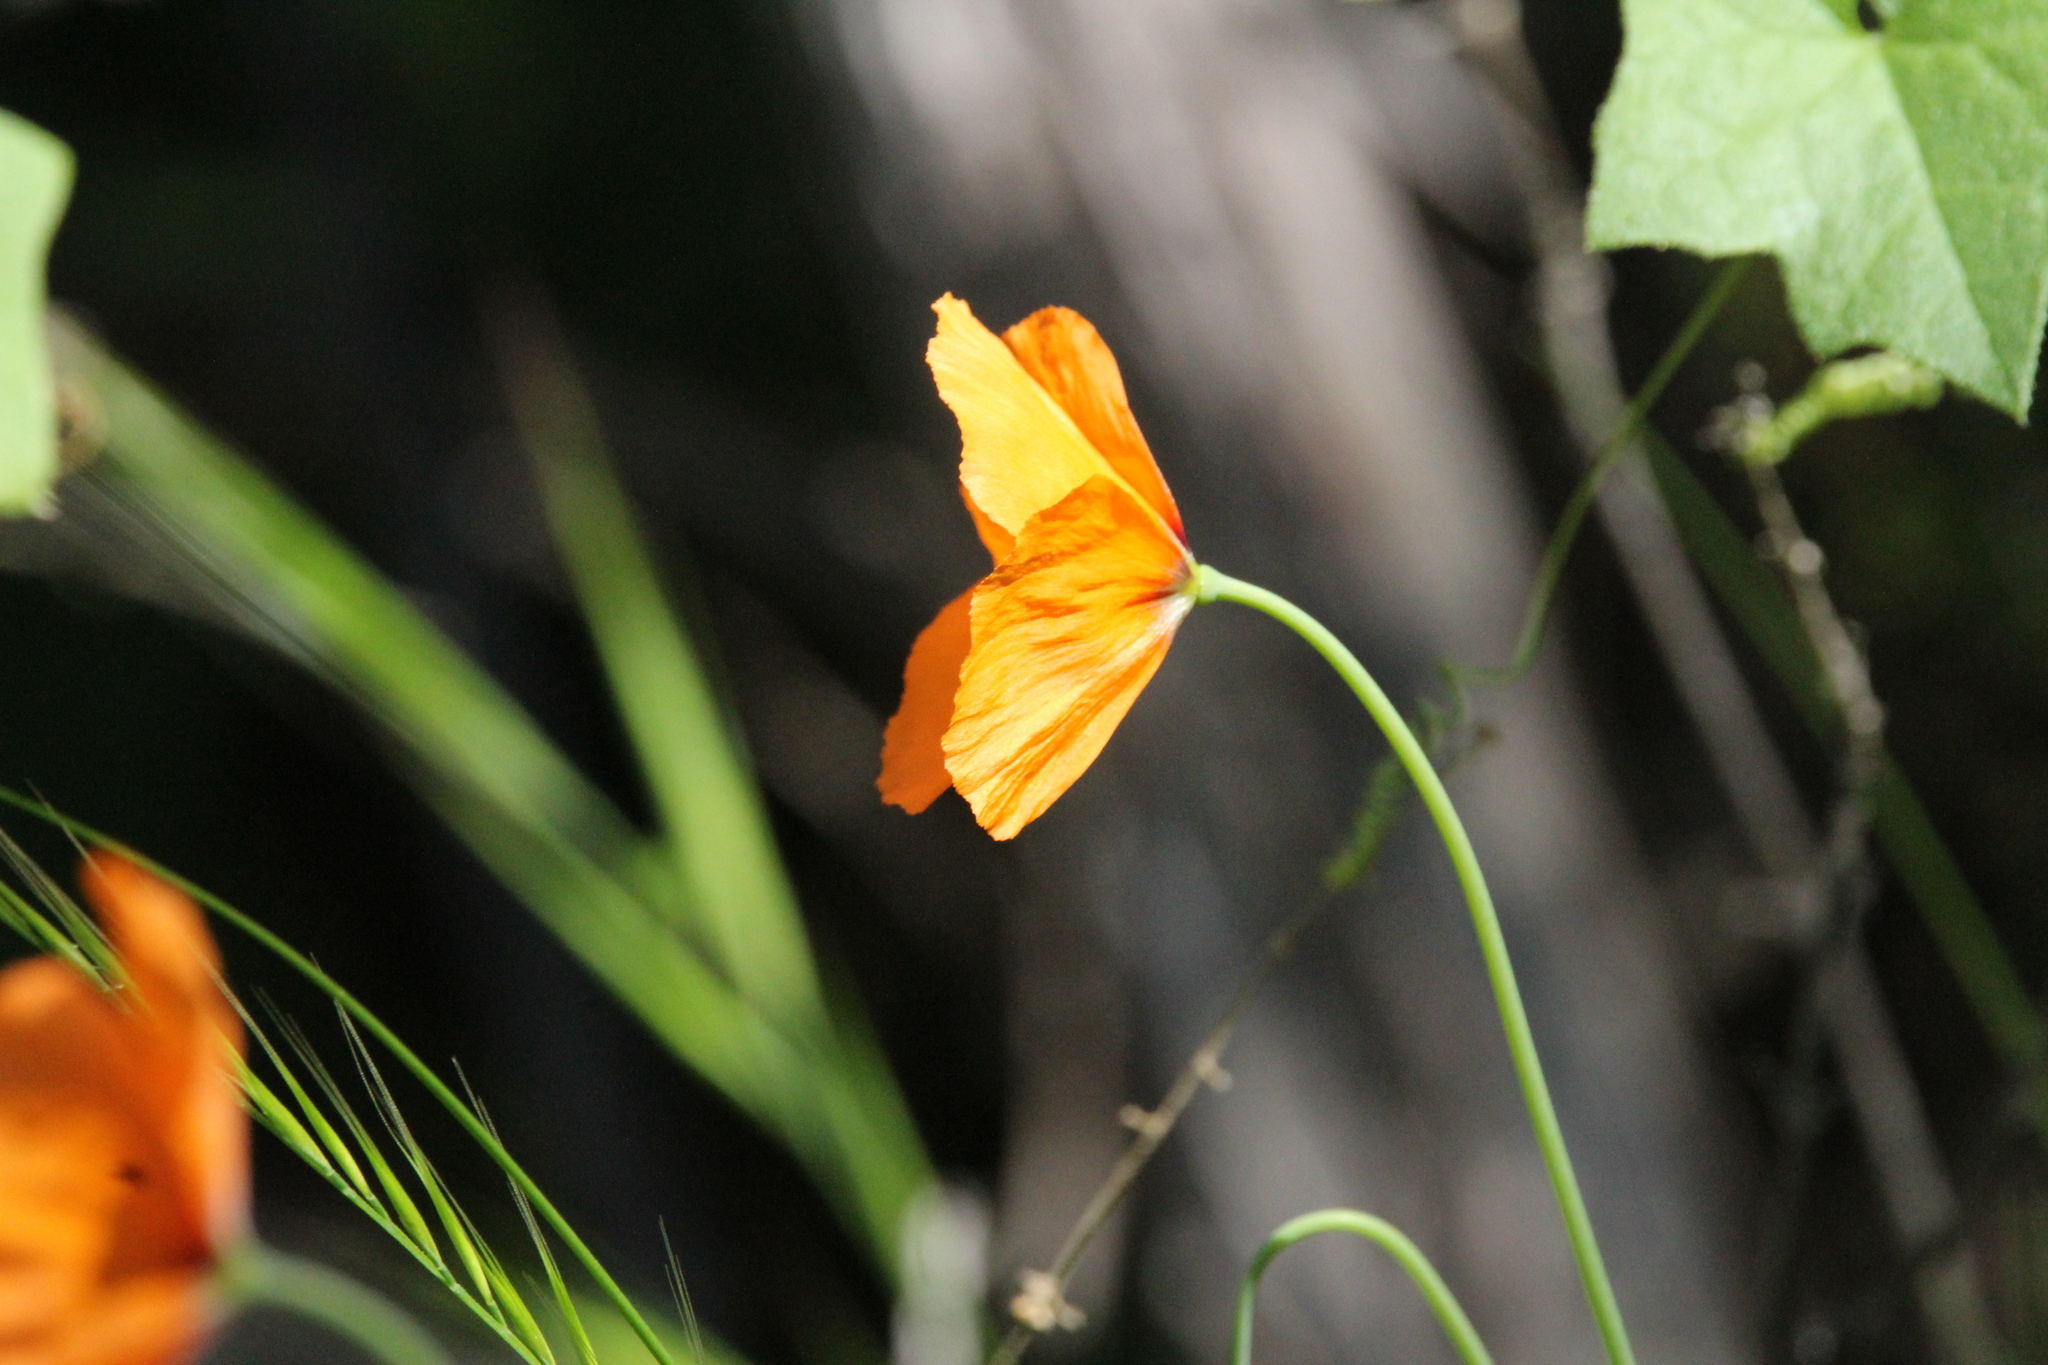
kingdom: Plantae
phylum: Tracheophyta
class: Magnoliopsida
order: Ranunculales
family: Papaveraceae
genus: Stylomecon
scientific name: Stylomecon heterophylla
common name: Flaming-poppy
